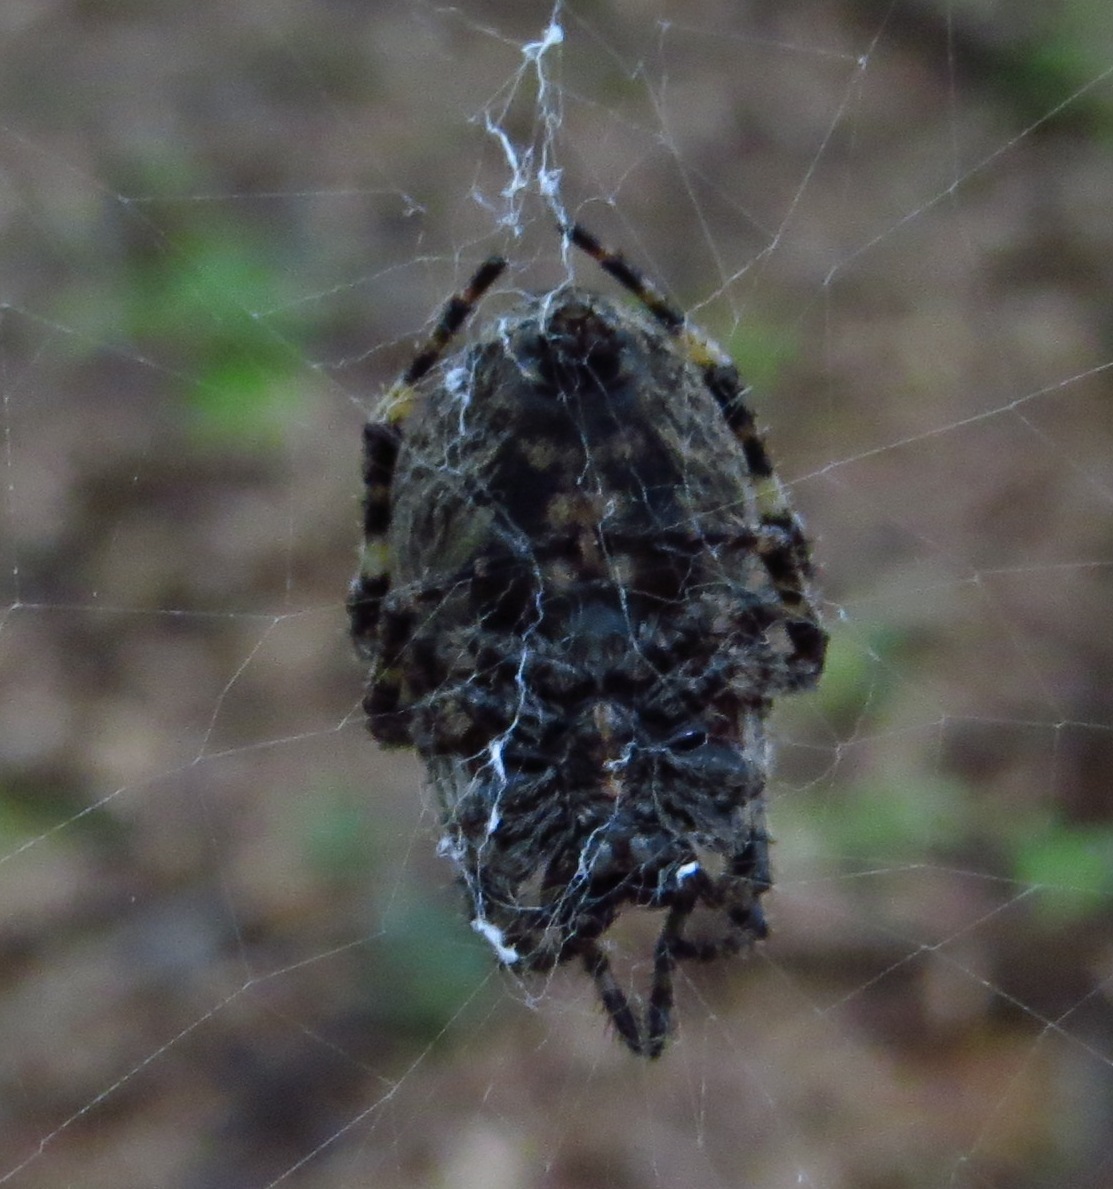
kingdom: Animalia
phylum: Arthropoda
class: Arachnida
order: Araneae
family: Araneidae
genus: Araneus
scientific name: Araneus bicentenarius
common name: Giant lichen orbweaver
